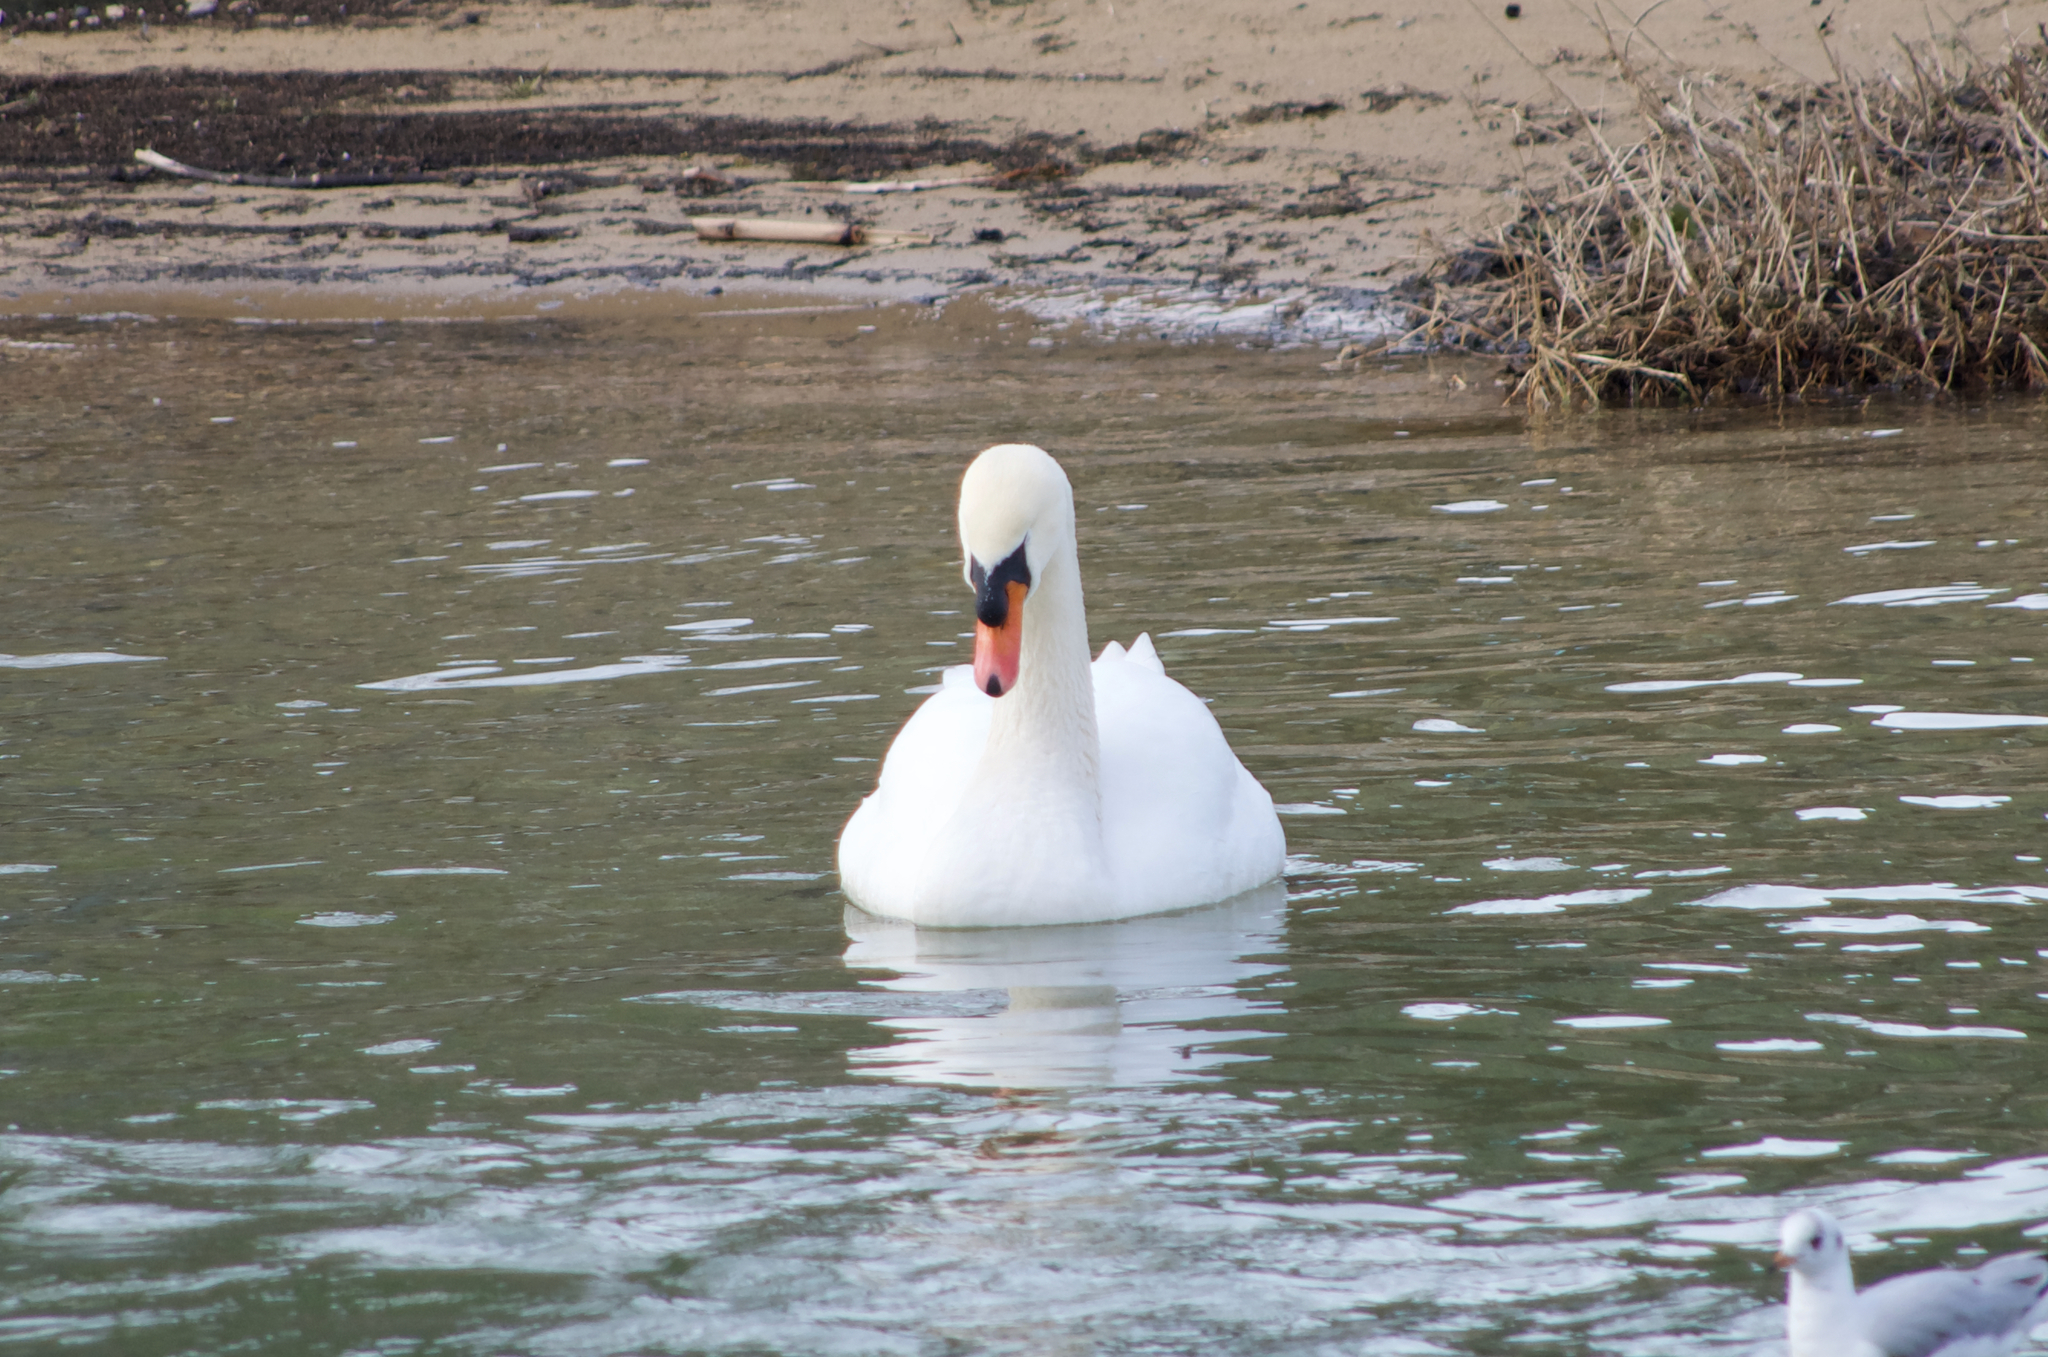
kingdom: Animalia
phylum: Chordata
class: Aves
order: Anseriformes
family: Anatidae
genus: Cygnus
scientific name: Cygnus olor
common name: Mute swan
